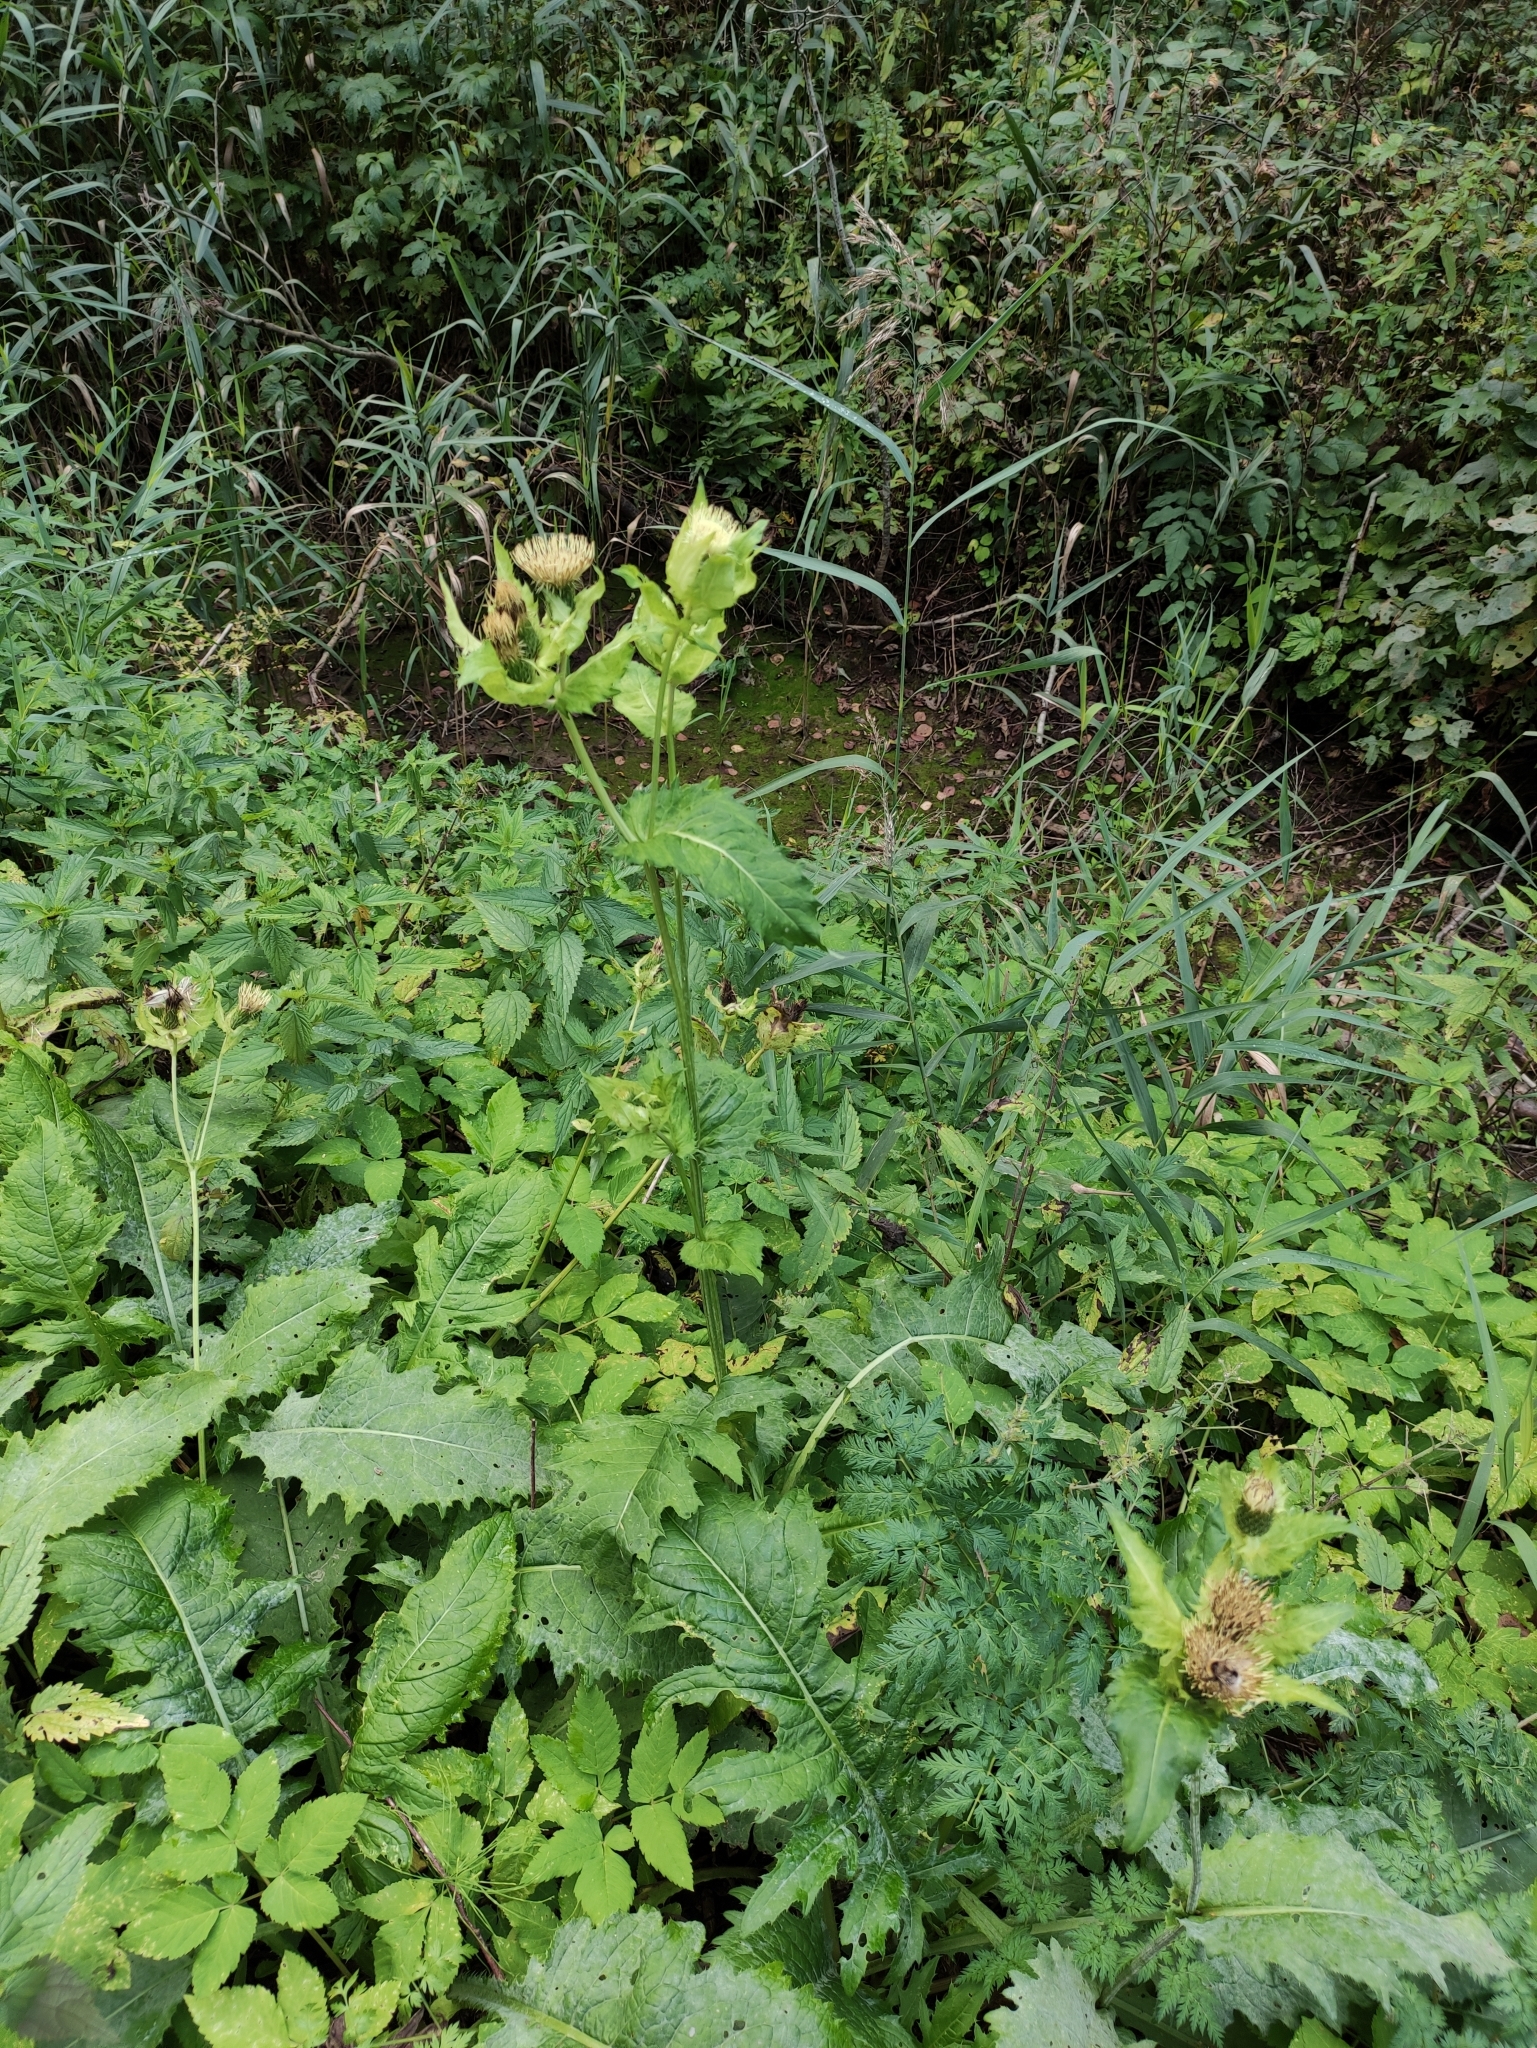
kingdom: Plantae
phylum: Tracheophyta
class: Magnoliopsida
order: Asterales
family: Asteraceae
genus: Cirsium
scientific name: Cirsium oleraceum
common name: Cabbage thistle
